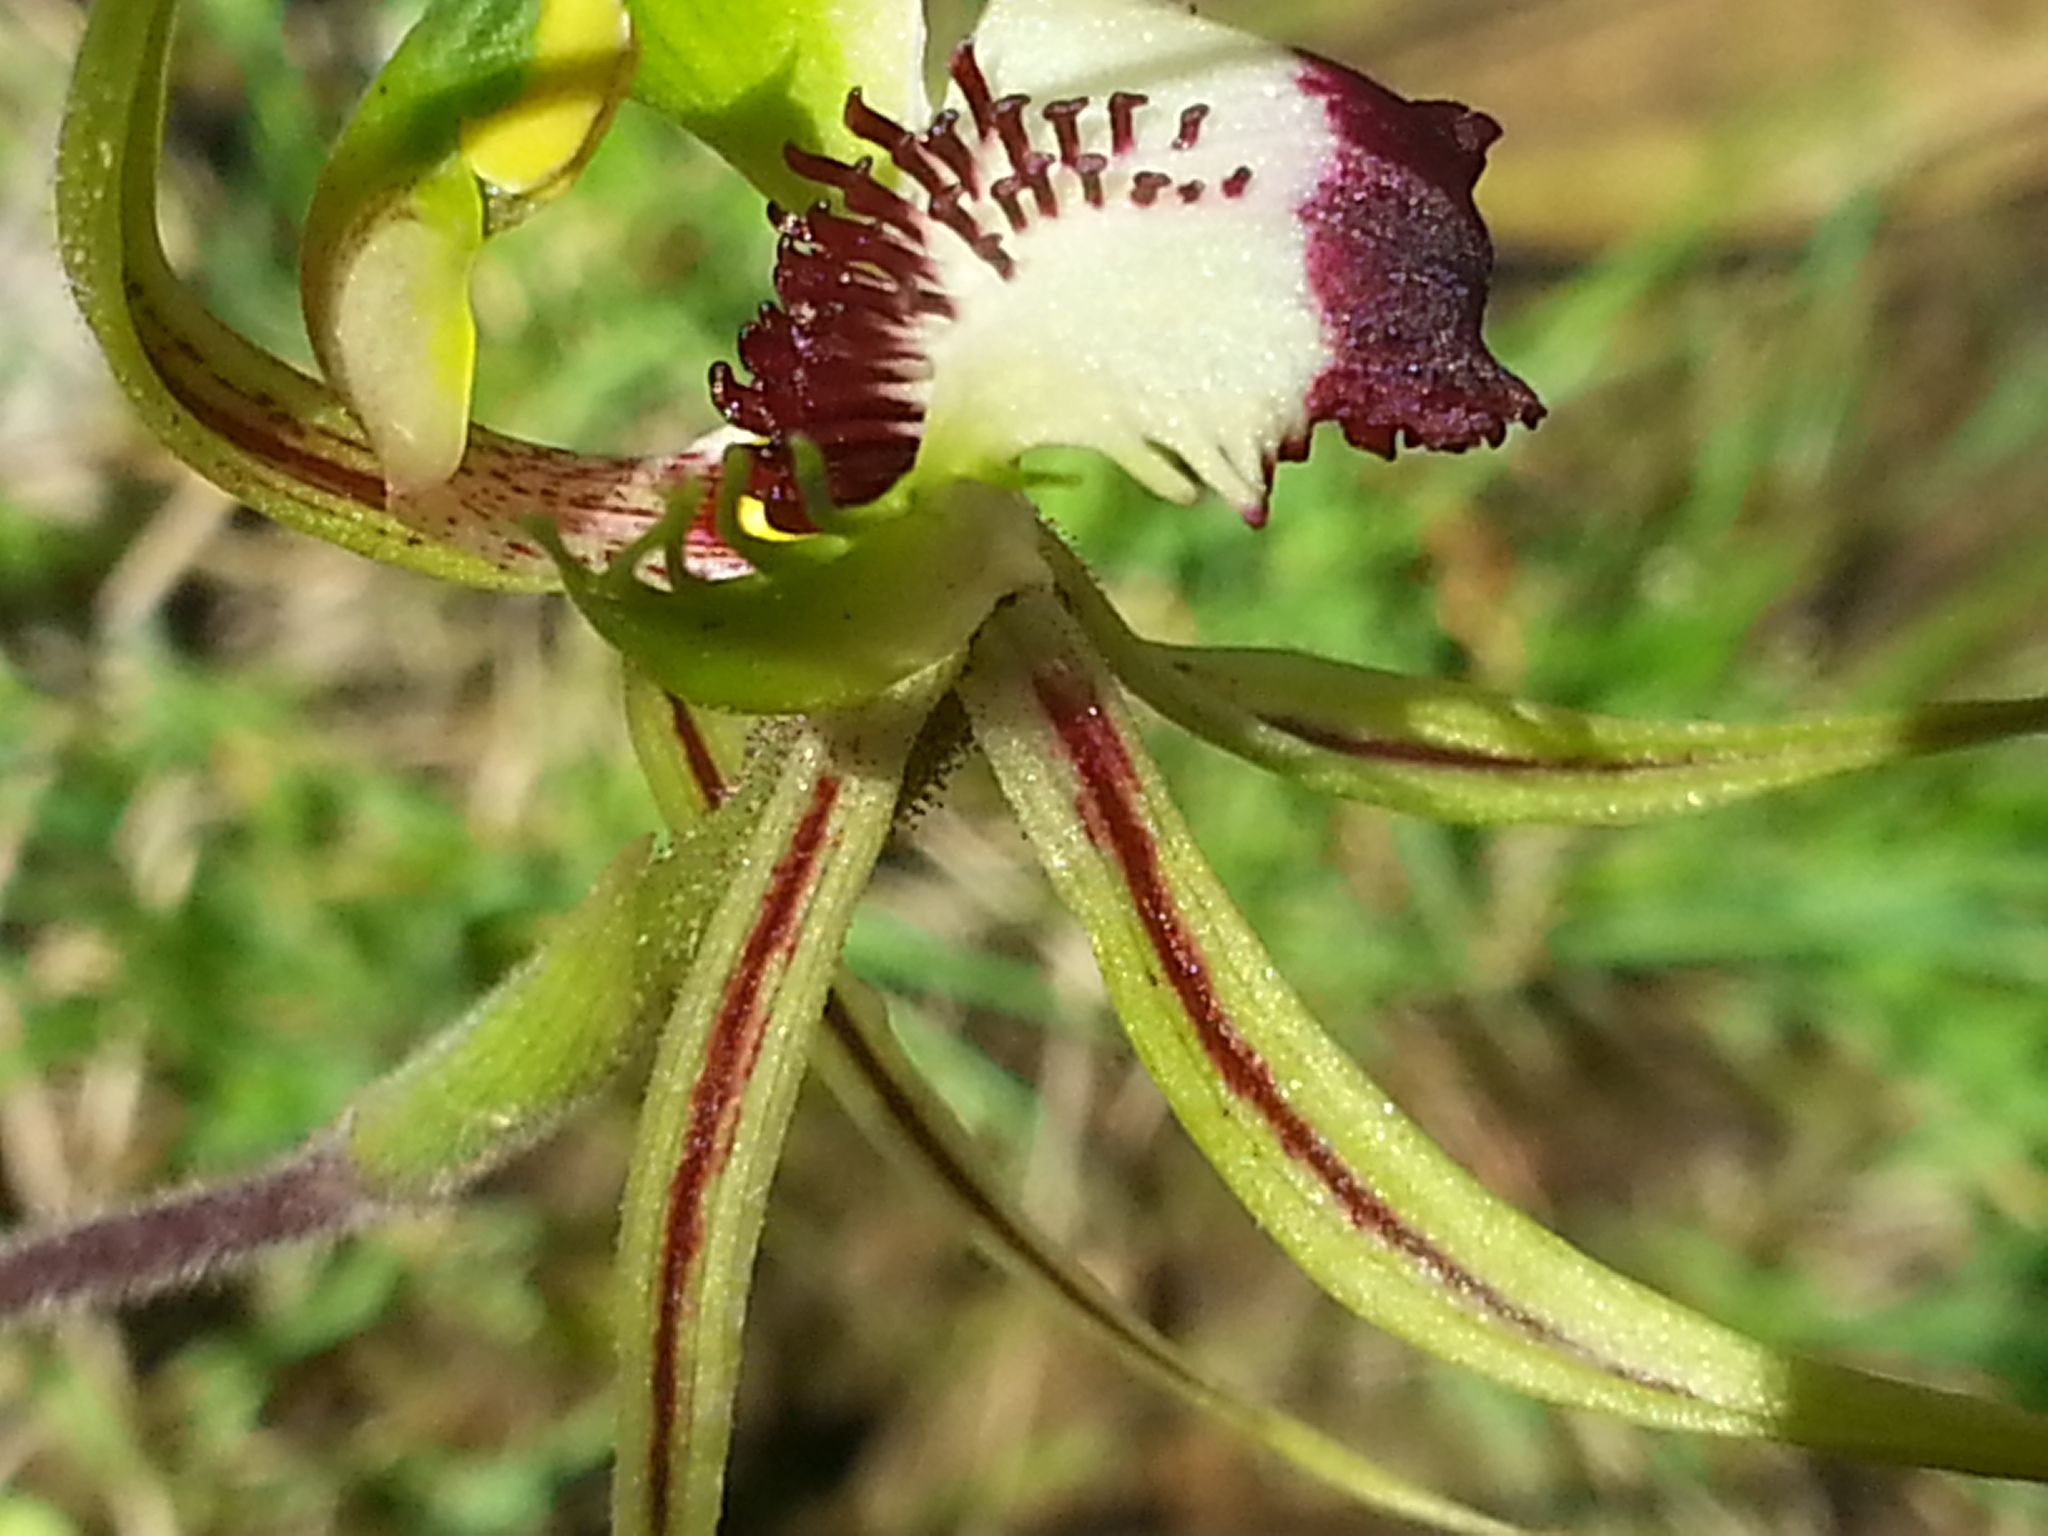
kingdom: Plantae
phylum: Tracheophyta
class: Liliopsida
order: Asparagales
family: Orchidaceae
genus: Caladenia
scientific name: Caladenia tentaculata
